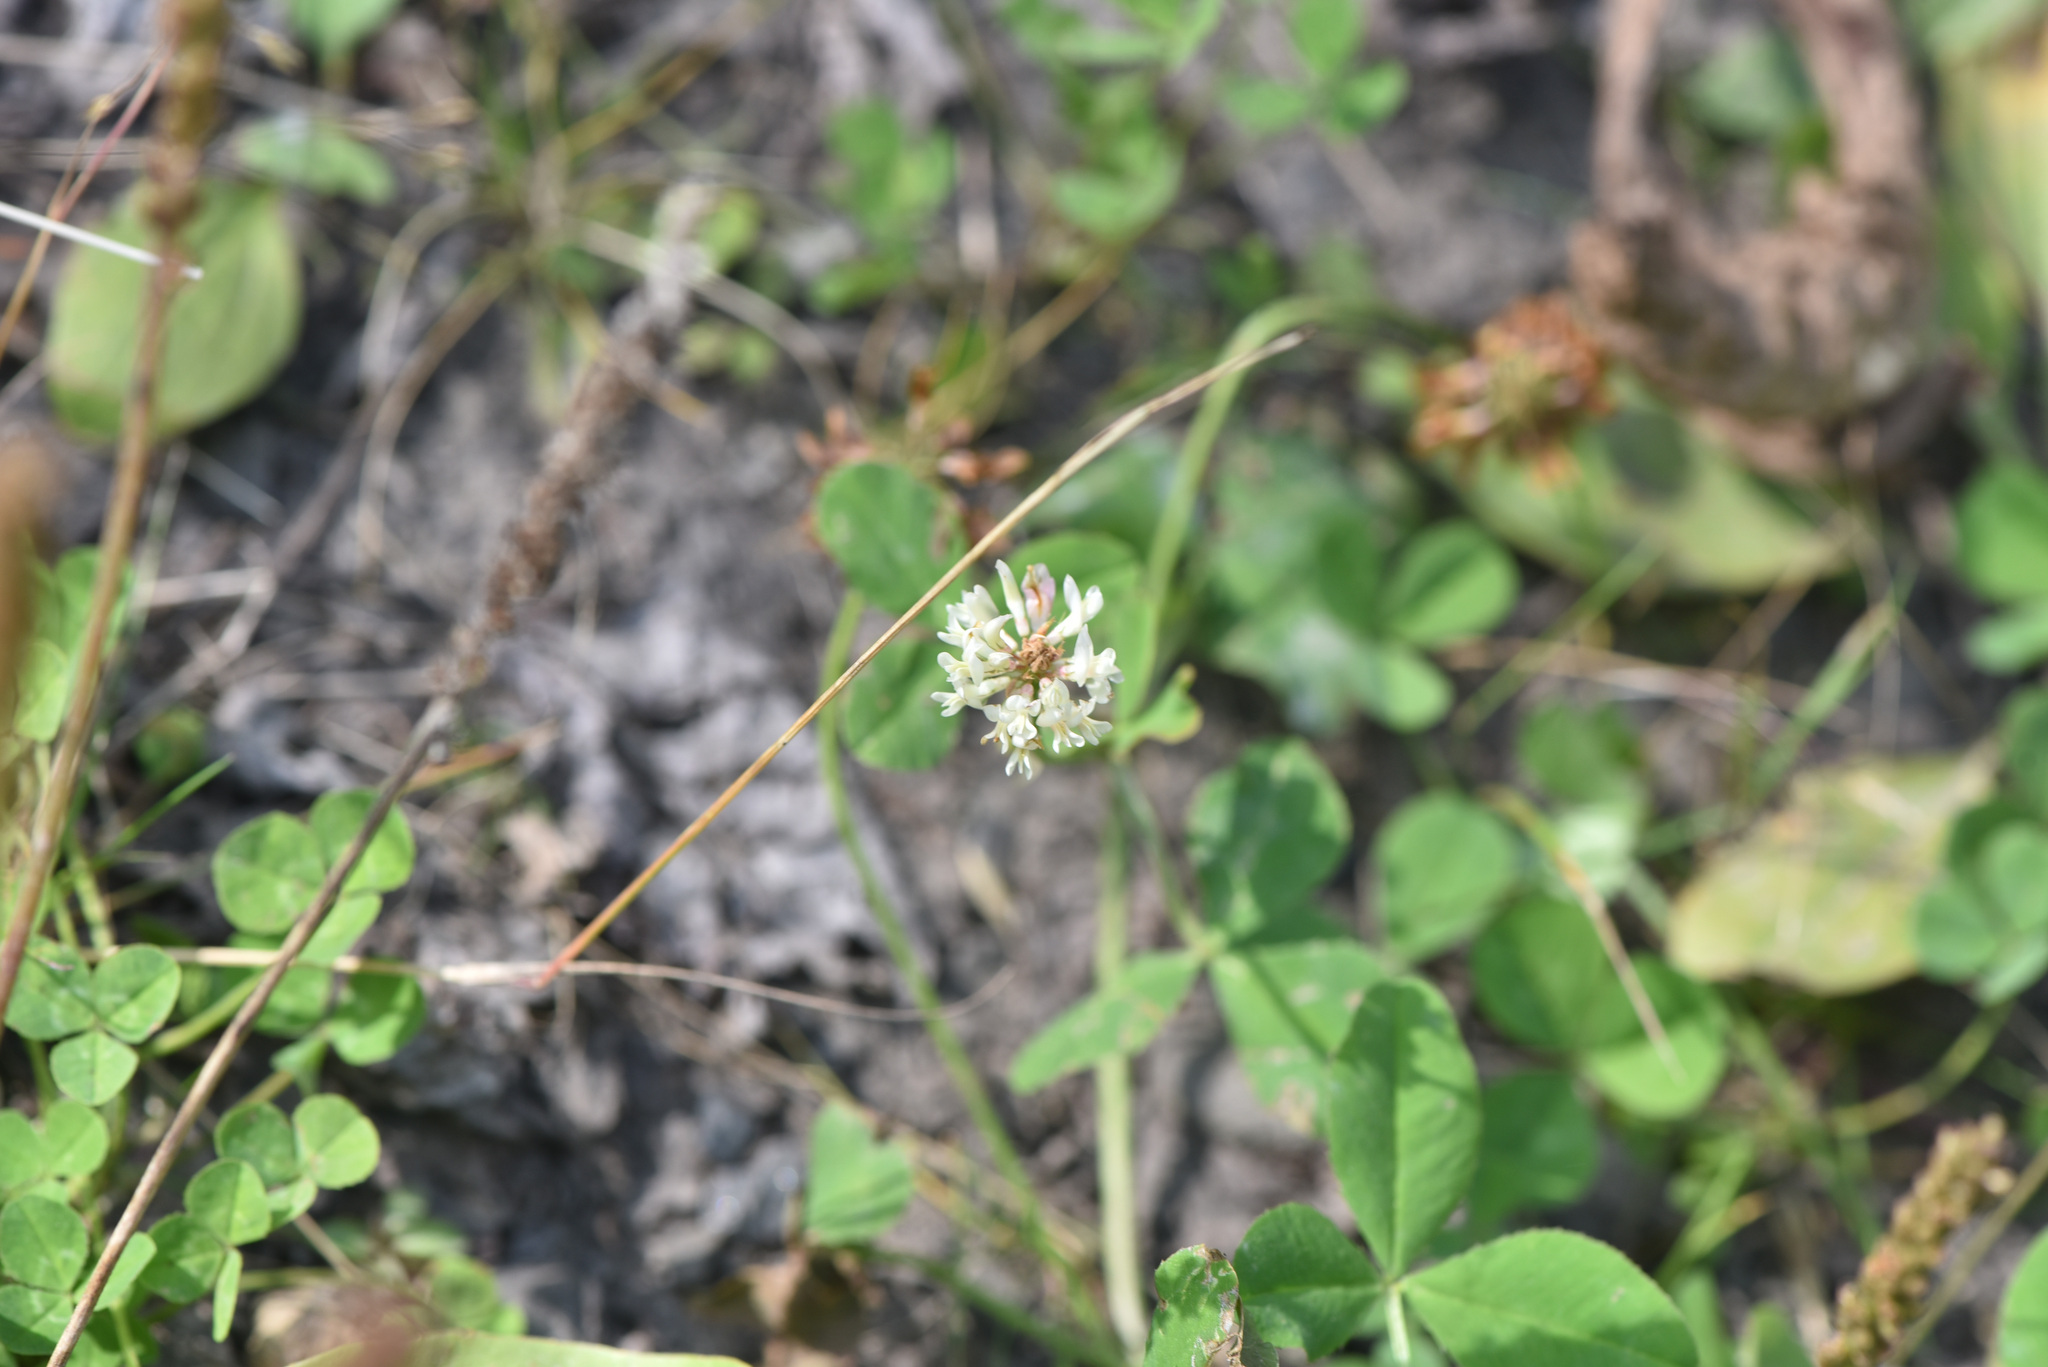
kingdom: Plantae
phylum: Tracheophyta
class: Magnoliopsida
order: Fabales
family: Fabaceae
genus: Trifolium
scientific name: Trifolium repens
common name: White clover
